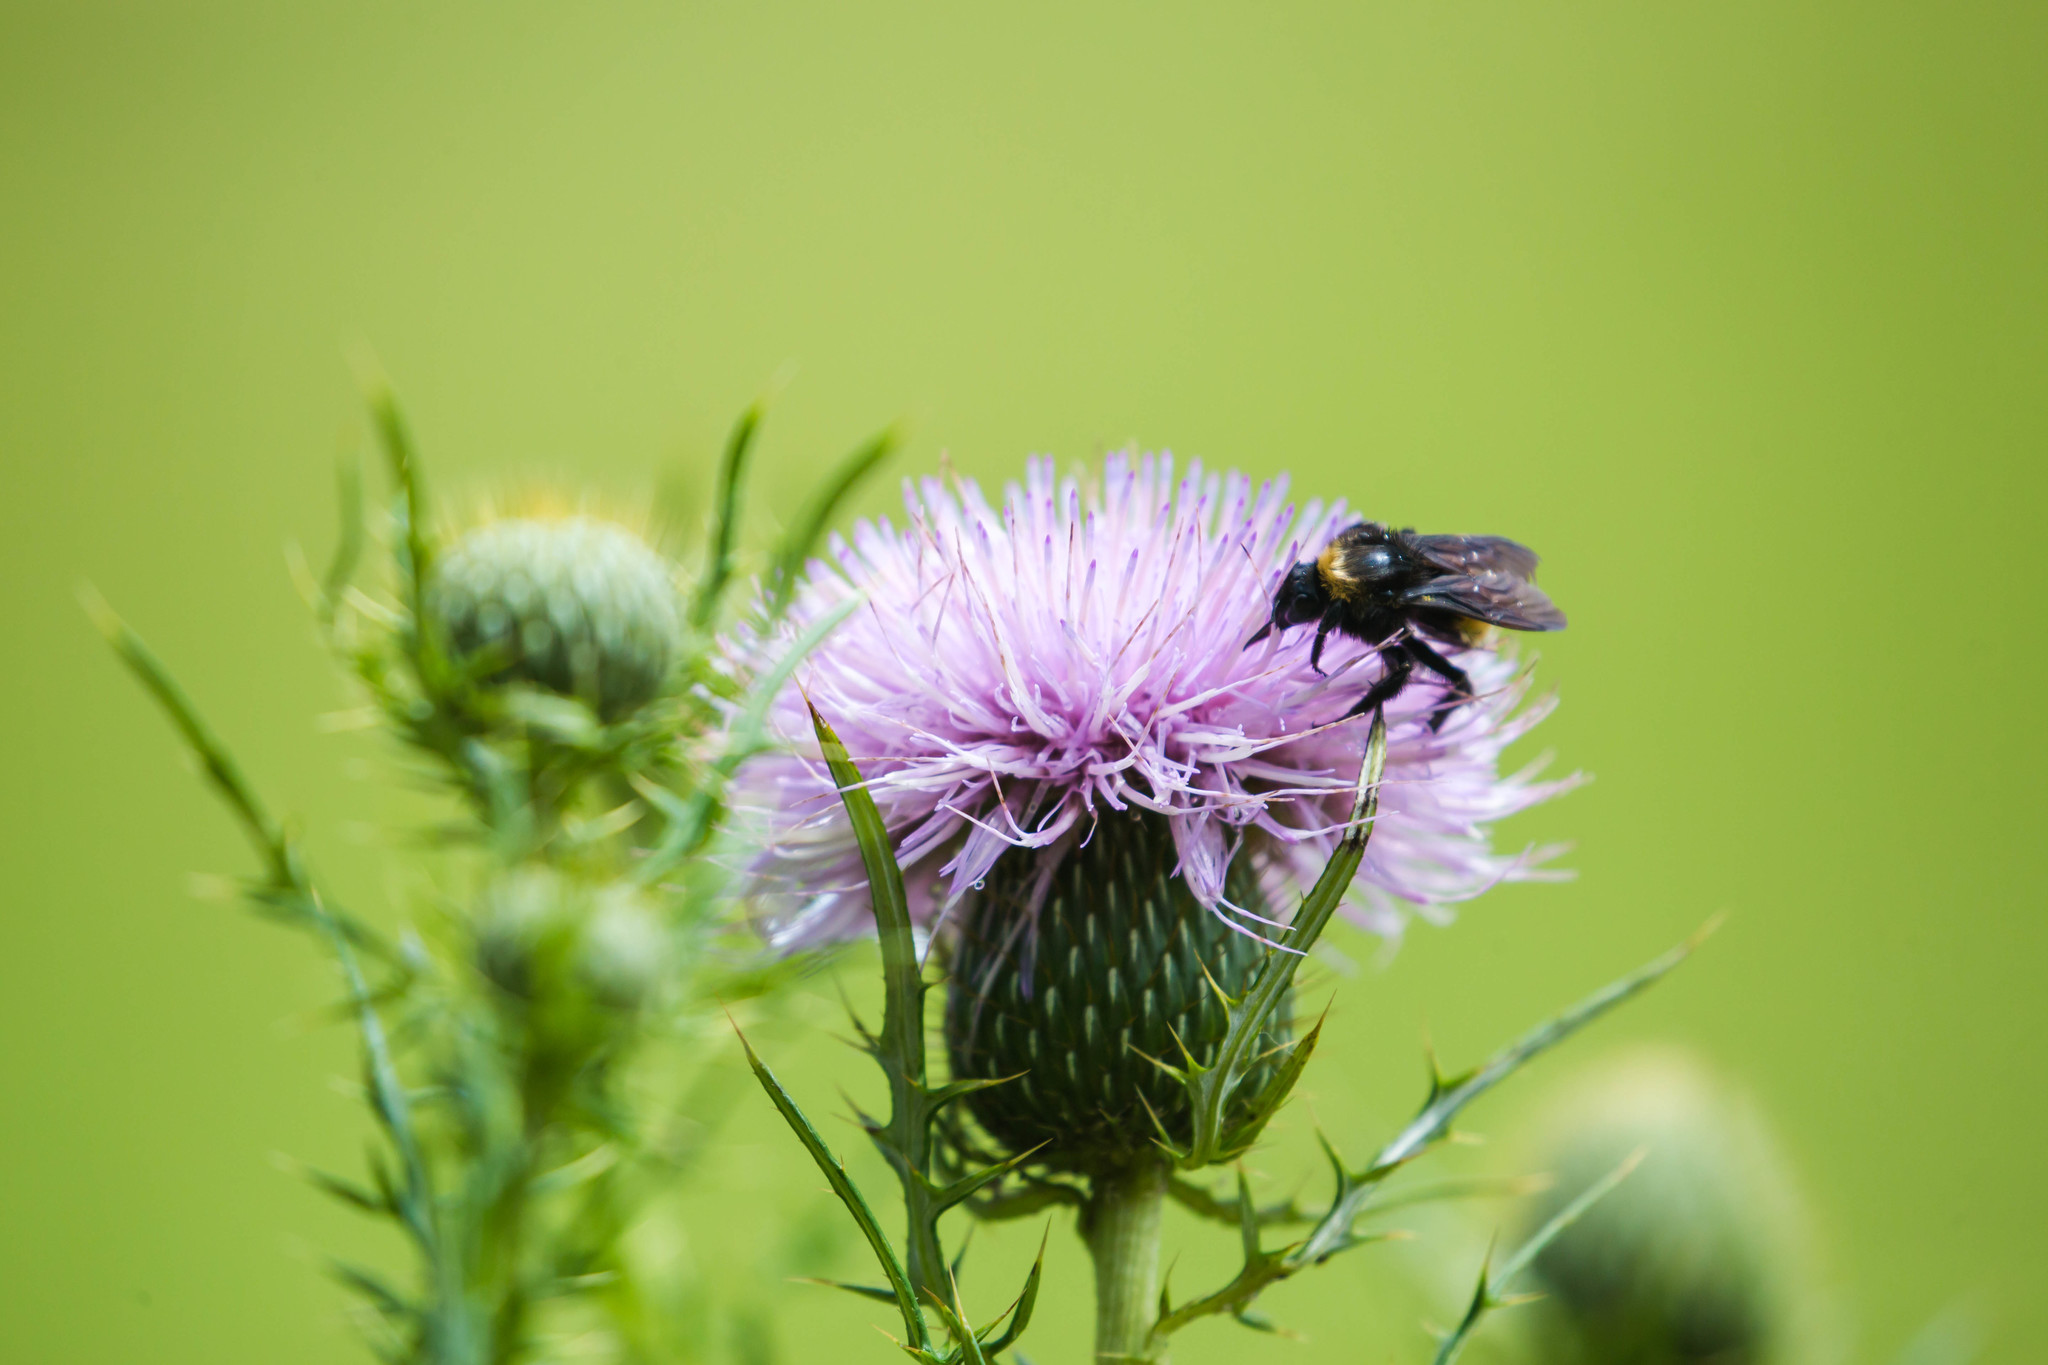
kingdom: Animalia
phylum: Arthropoda
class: Insecta
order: Hymenoptera
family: Apidae
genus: Bombus
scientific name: Bombus pensylvanicus
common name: Bumble bee
